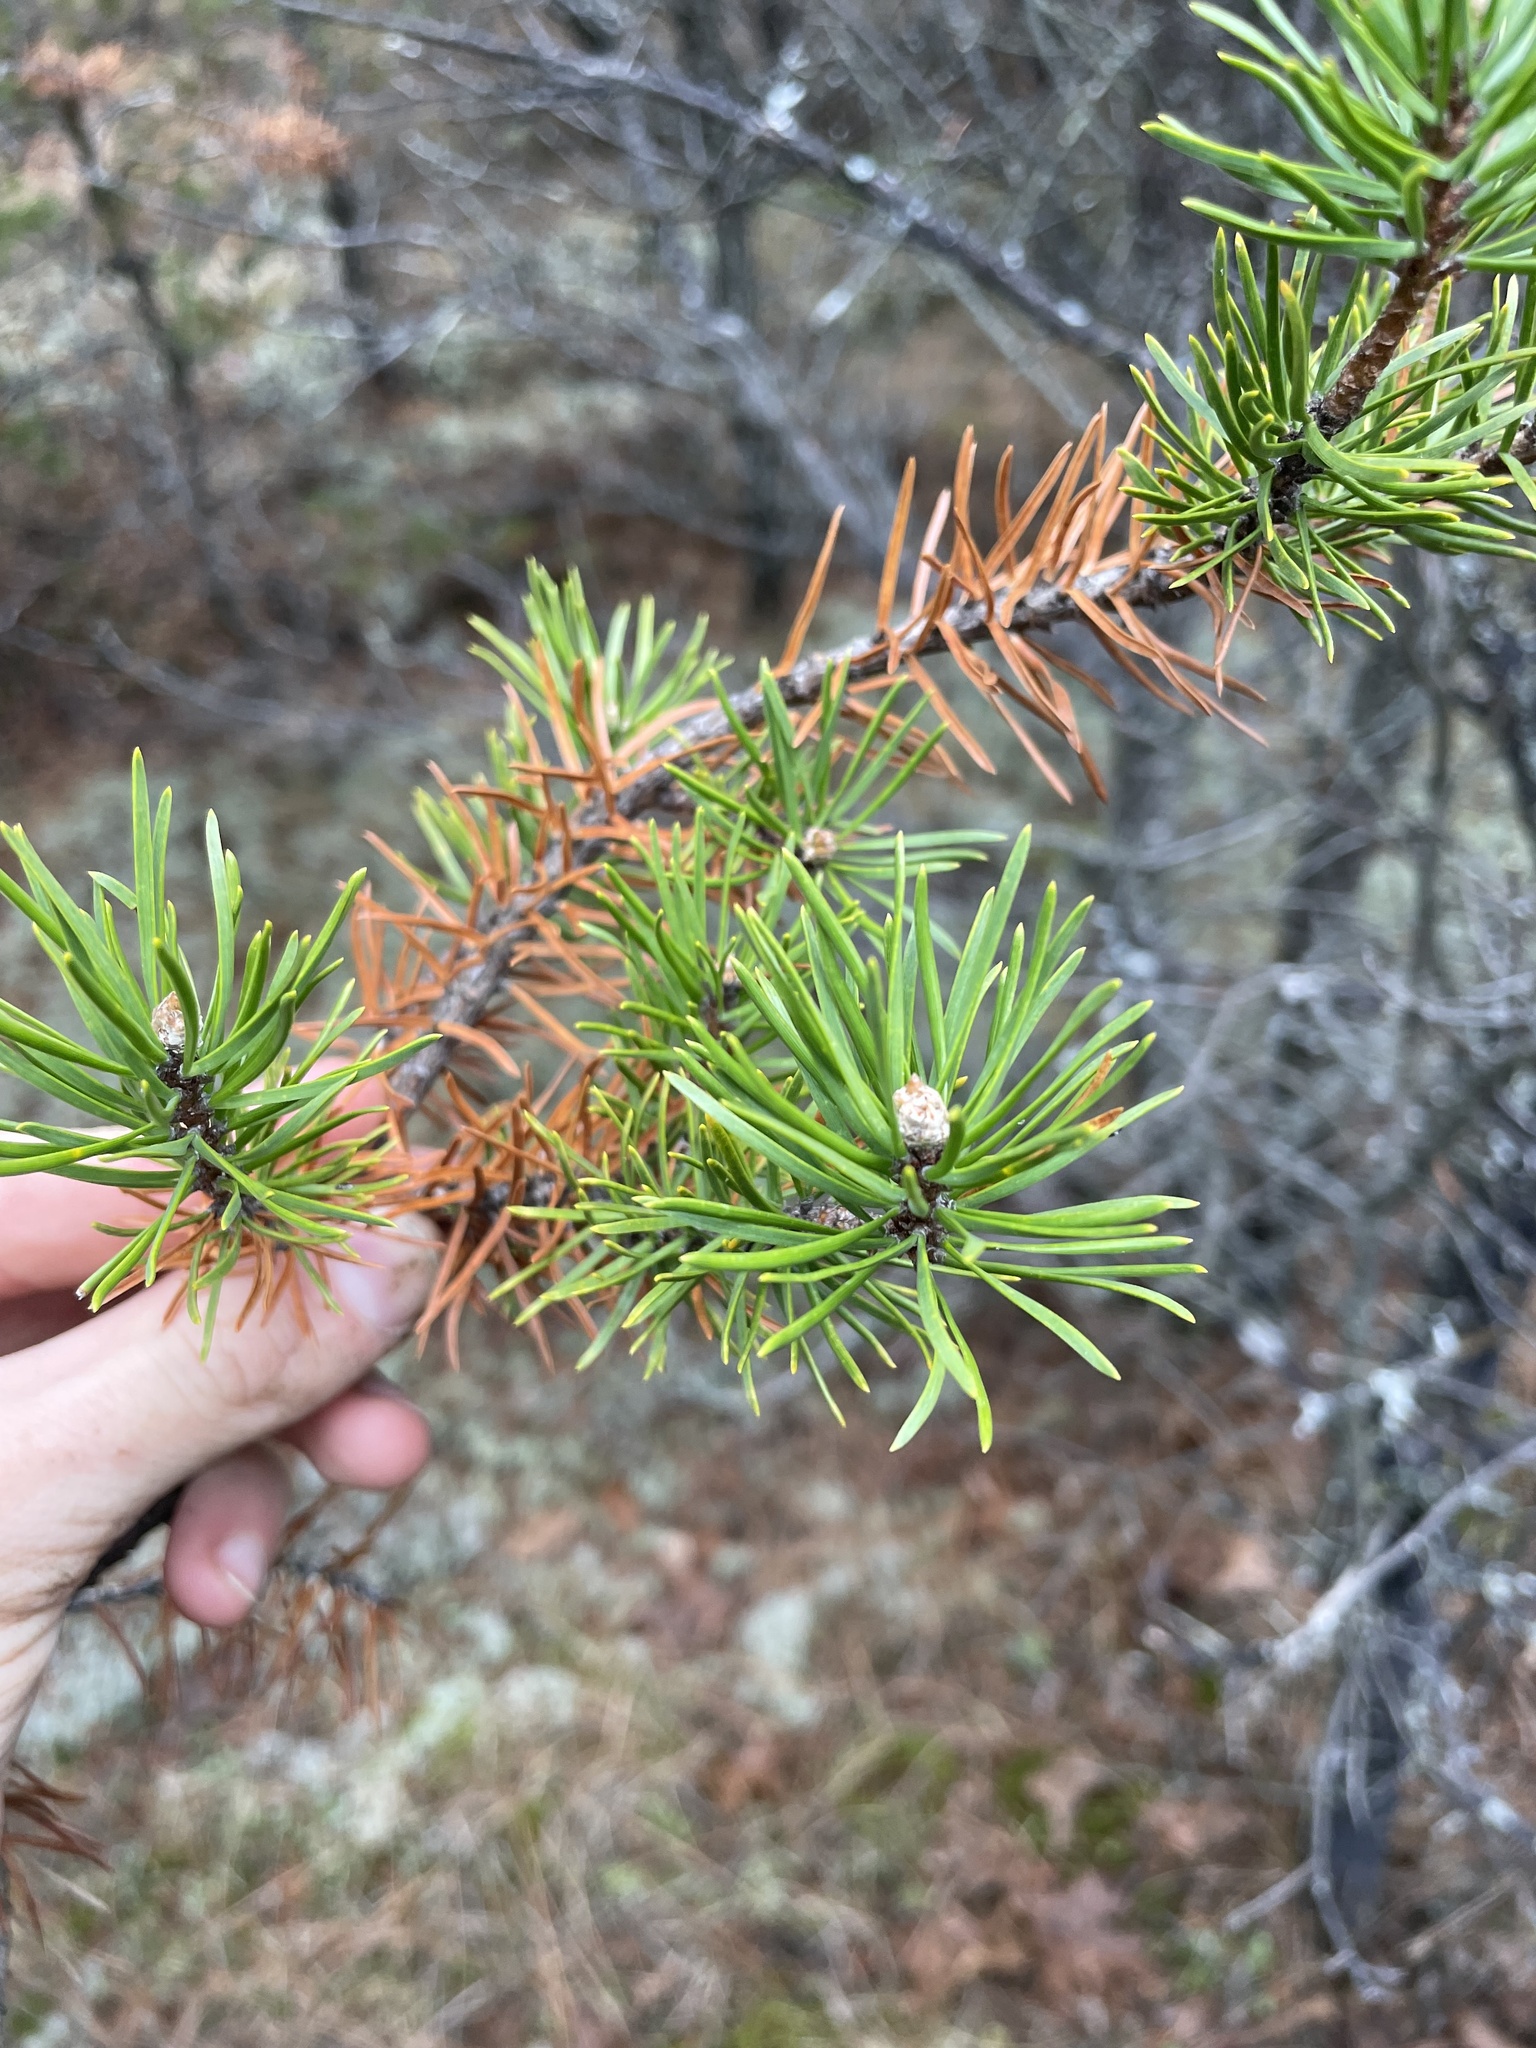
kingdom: Plantae
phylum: Tracheophyta
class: Pinopsida
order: Pinales
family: Pinaceae
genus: Pinus
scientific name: Pinus banksiana
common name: Jack pine
